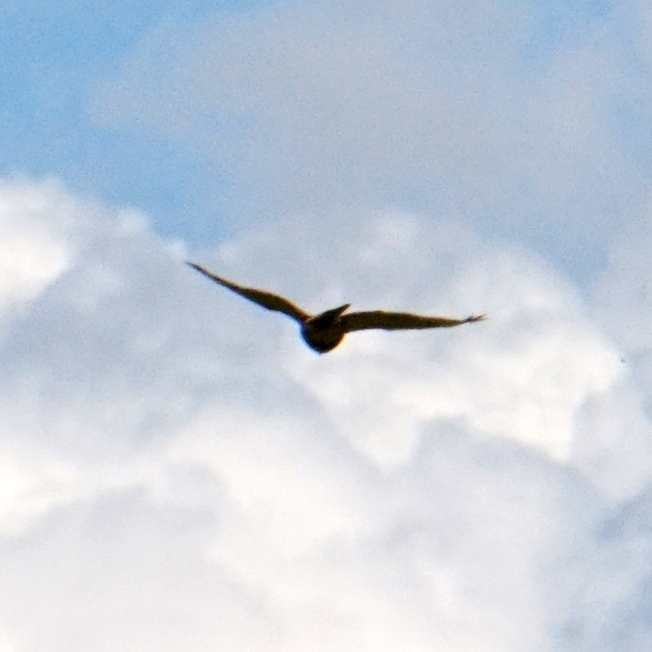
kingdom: Animalia
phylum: Chordata
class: Aves
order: Accipitriformes
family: Accipitridae
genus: Buteo
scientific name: Buteo jamaicensis
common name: Red-tailed hawk
